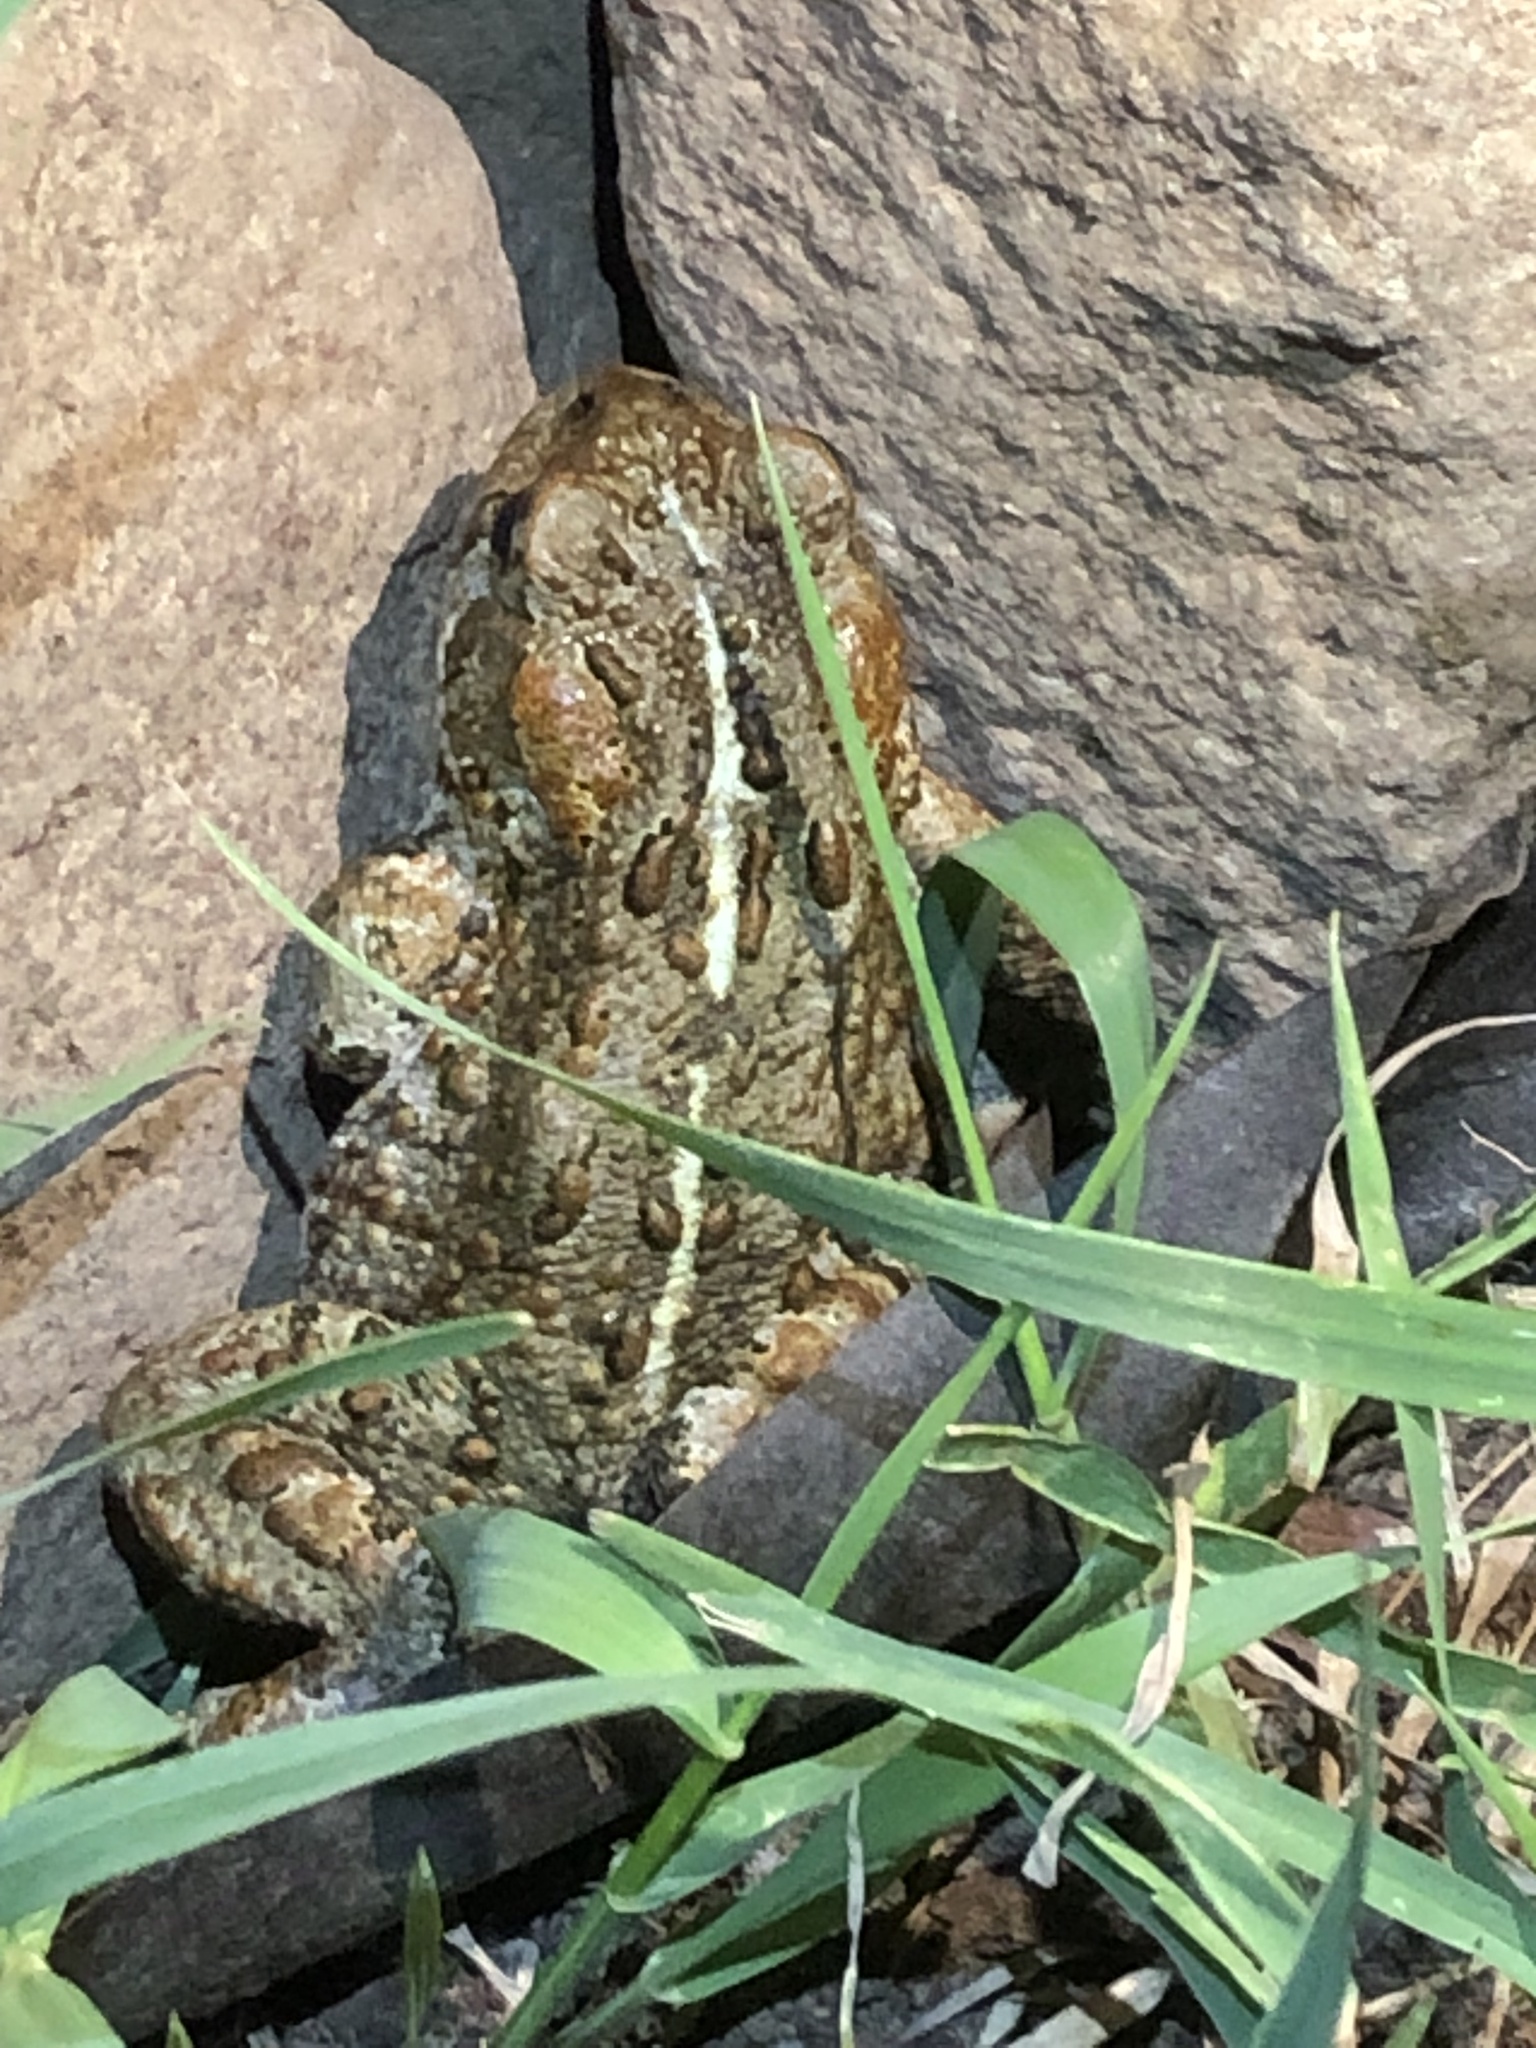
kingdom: Animalia
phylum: Chordata
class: Amphibia
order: Anura
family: Bufonidae
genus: Anaxyrus
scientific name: Anaxyrus boreas
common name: Western toad
